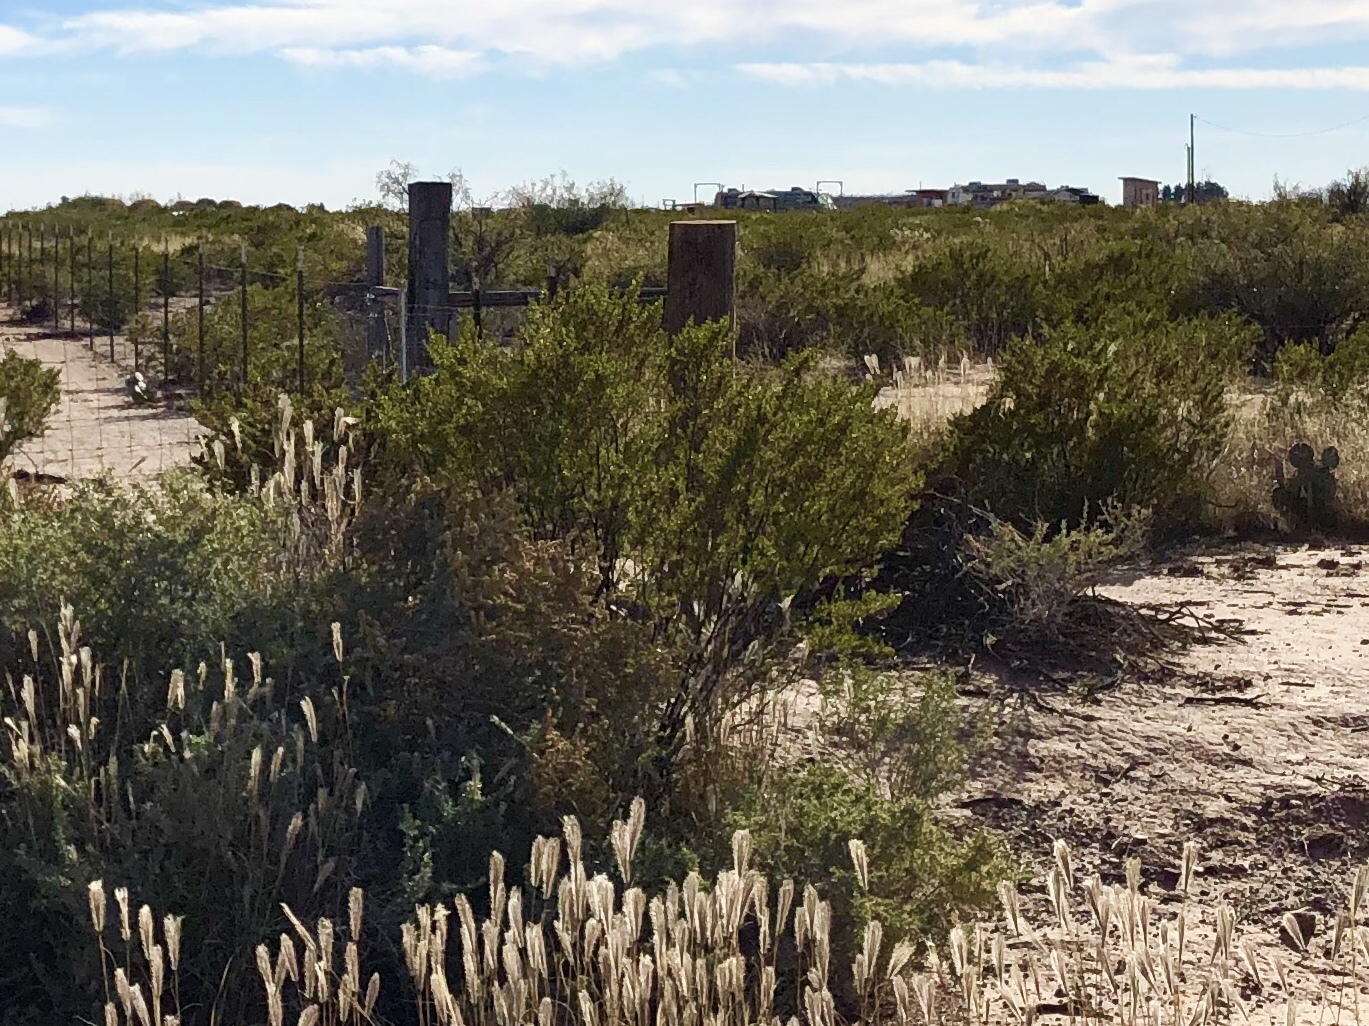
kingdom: Plantae
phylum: Tracheophyta
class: Magnoliopsida
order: Zygophyllales
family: Zygophyllaceae
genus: Larrea
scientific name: Larrea tridentata
